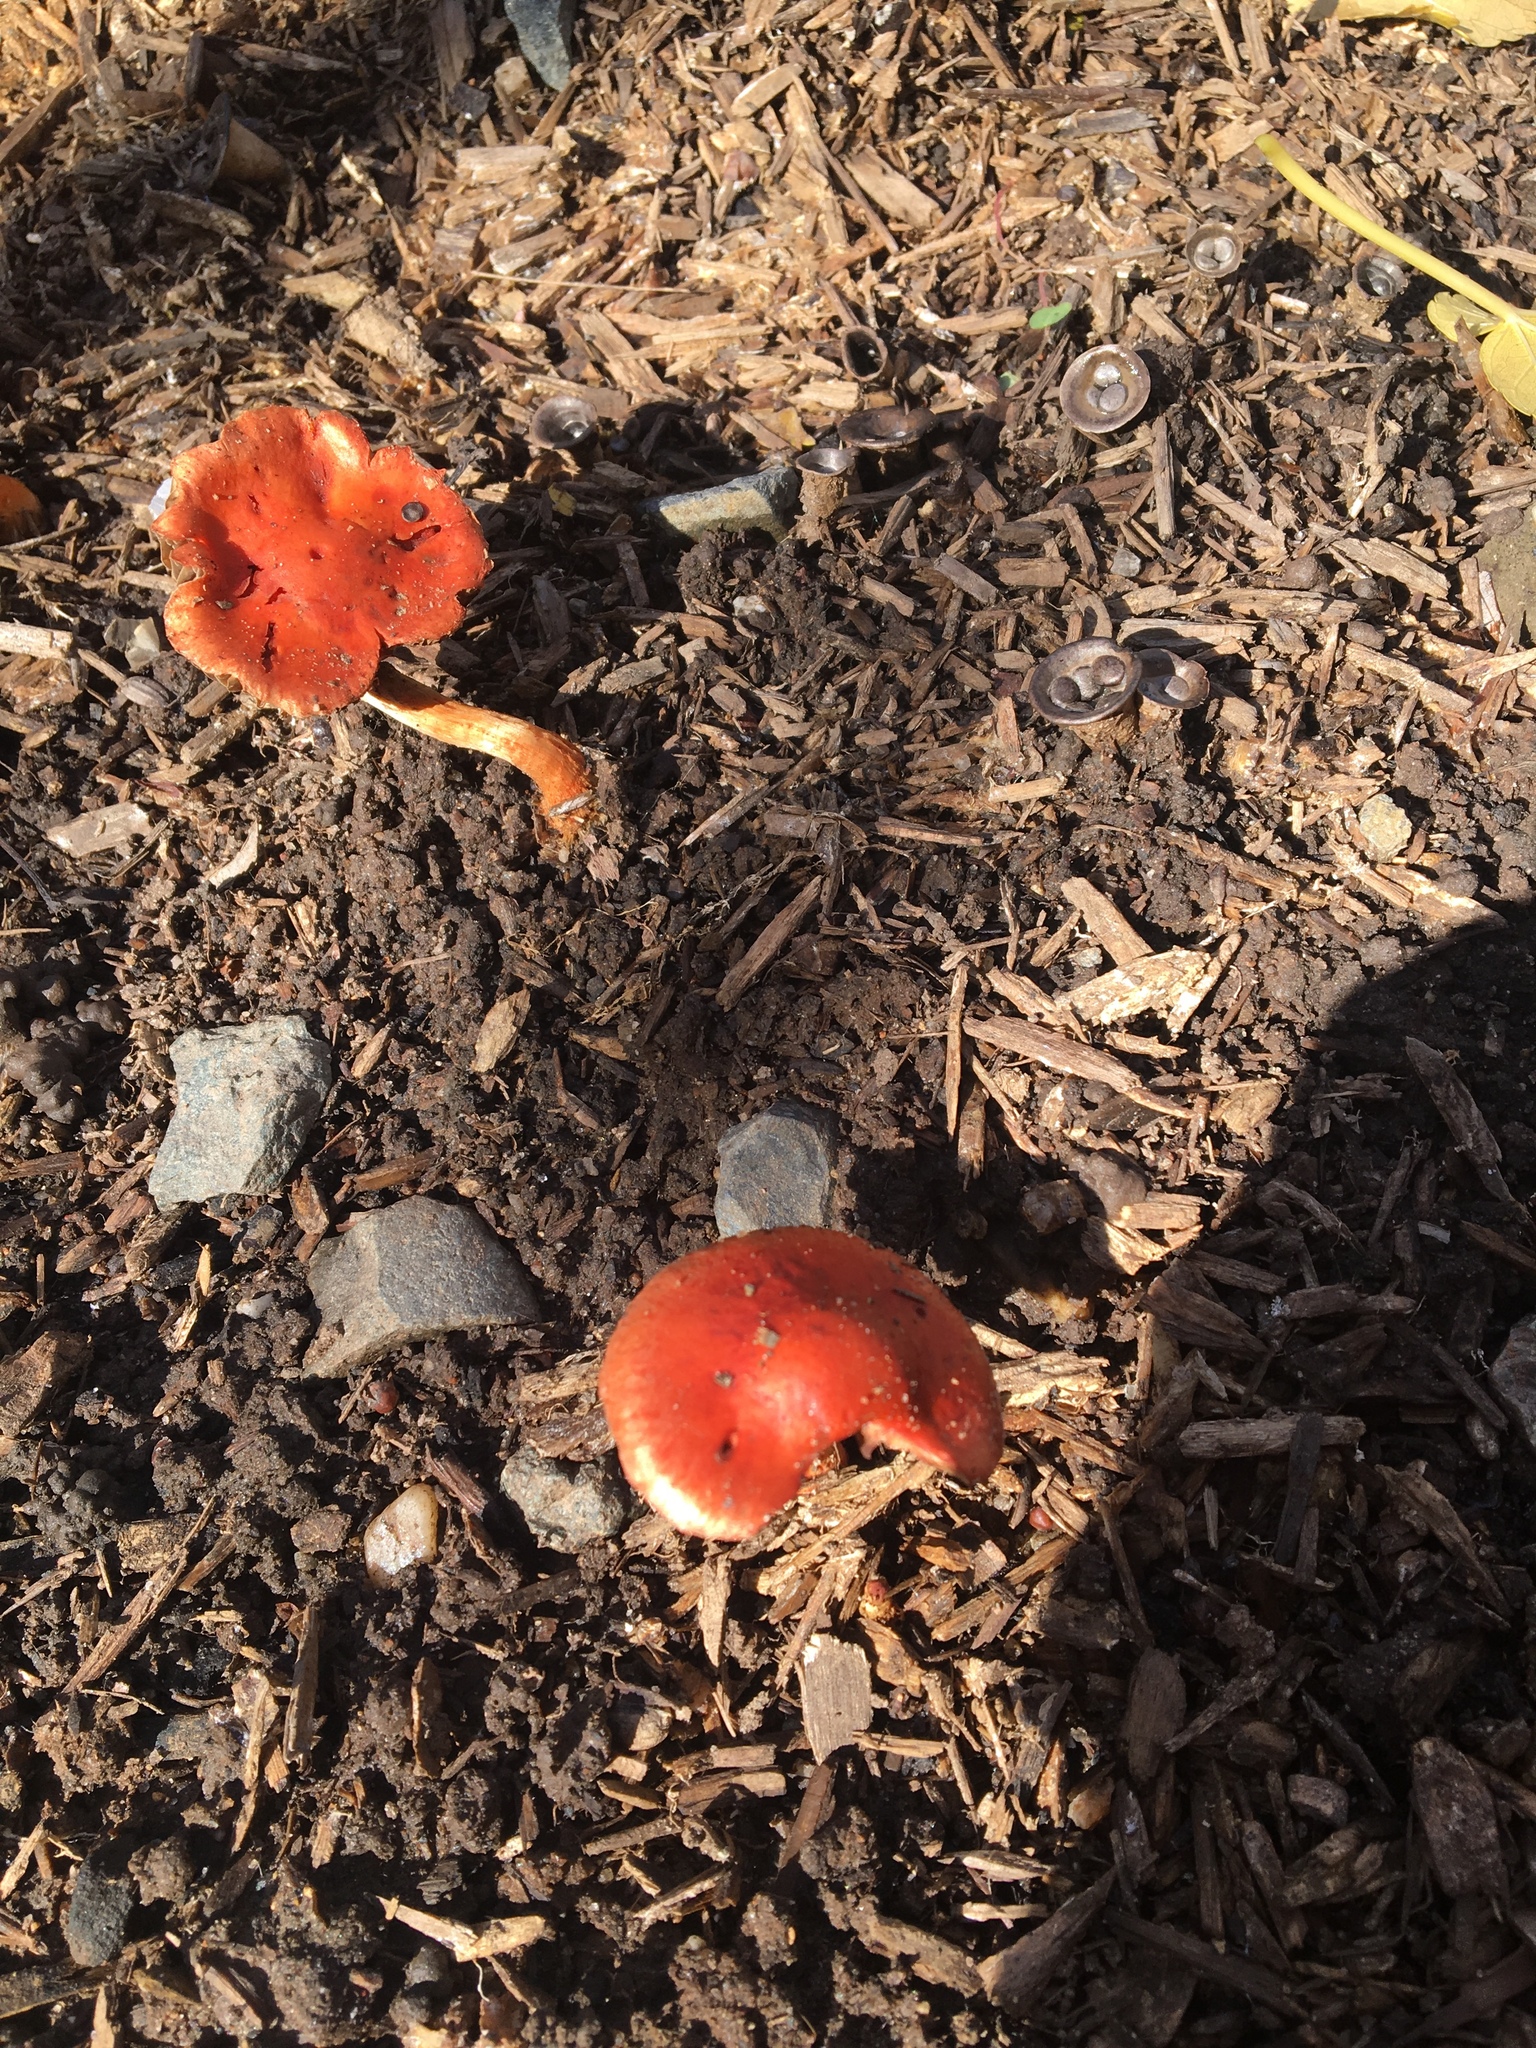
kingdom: Fungi
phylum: Basidiomycota
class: Agaricomycetes
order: Agaricales
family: Strophariaceae
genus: Leratiomyces
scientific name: Leratiomyces ceres
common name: Redlead roundhead
